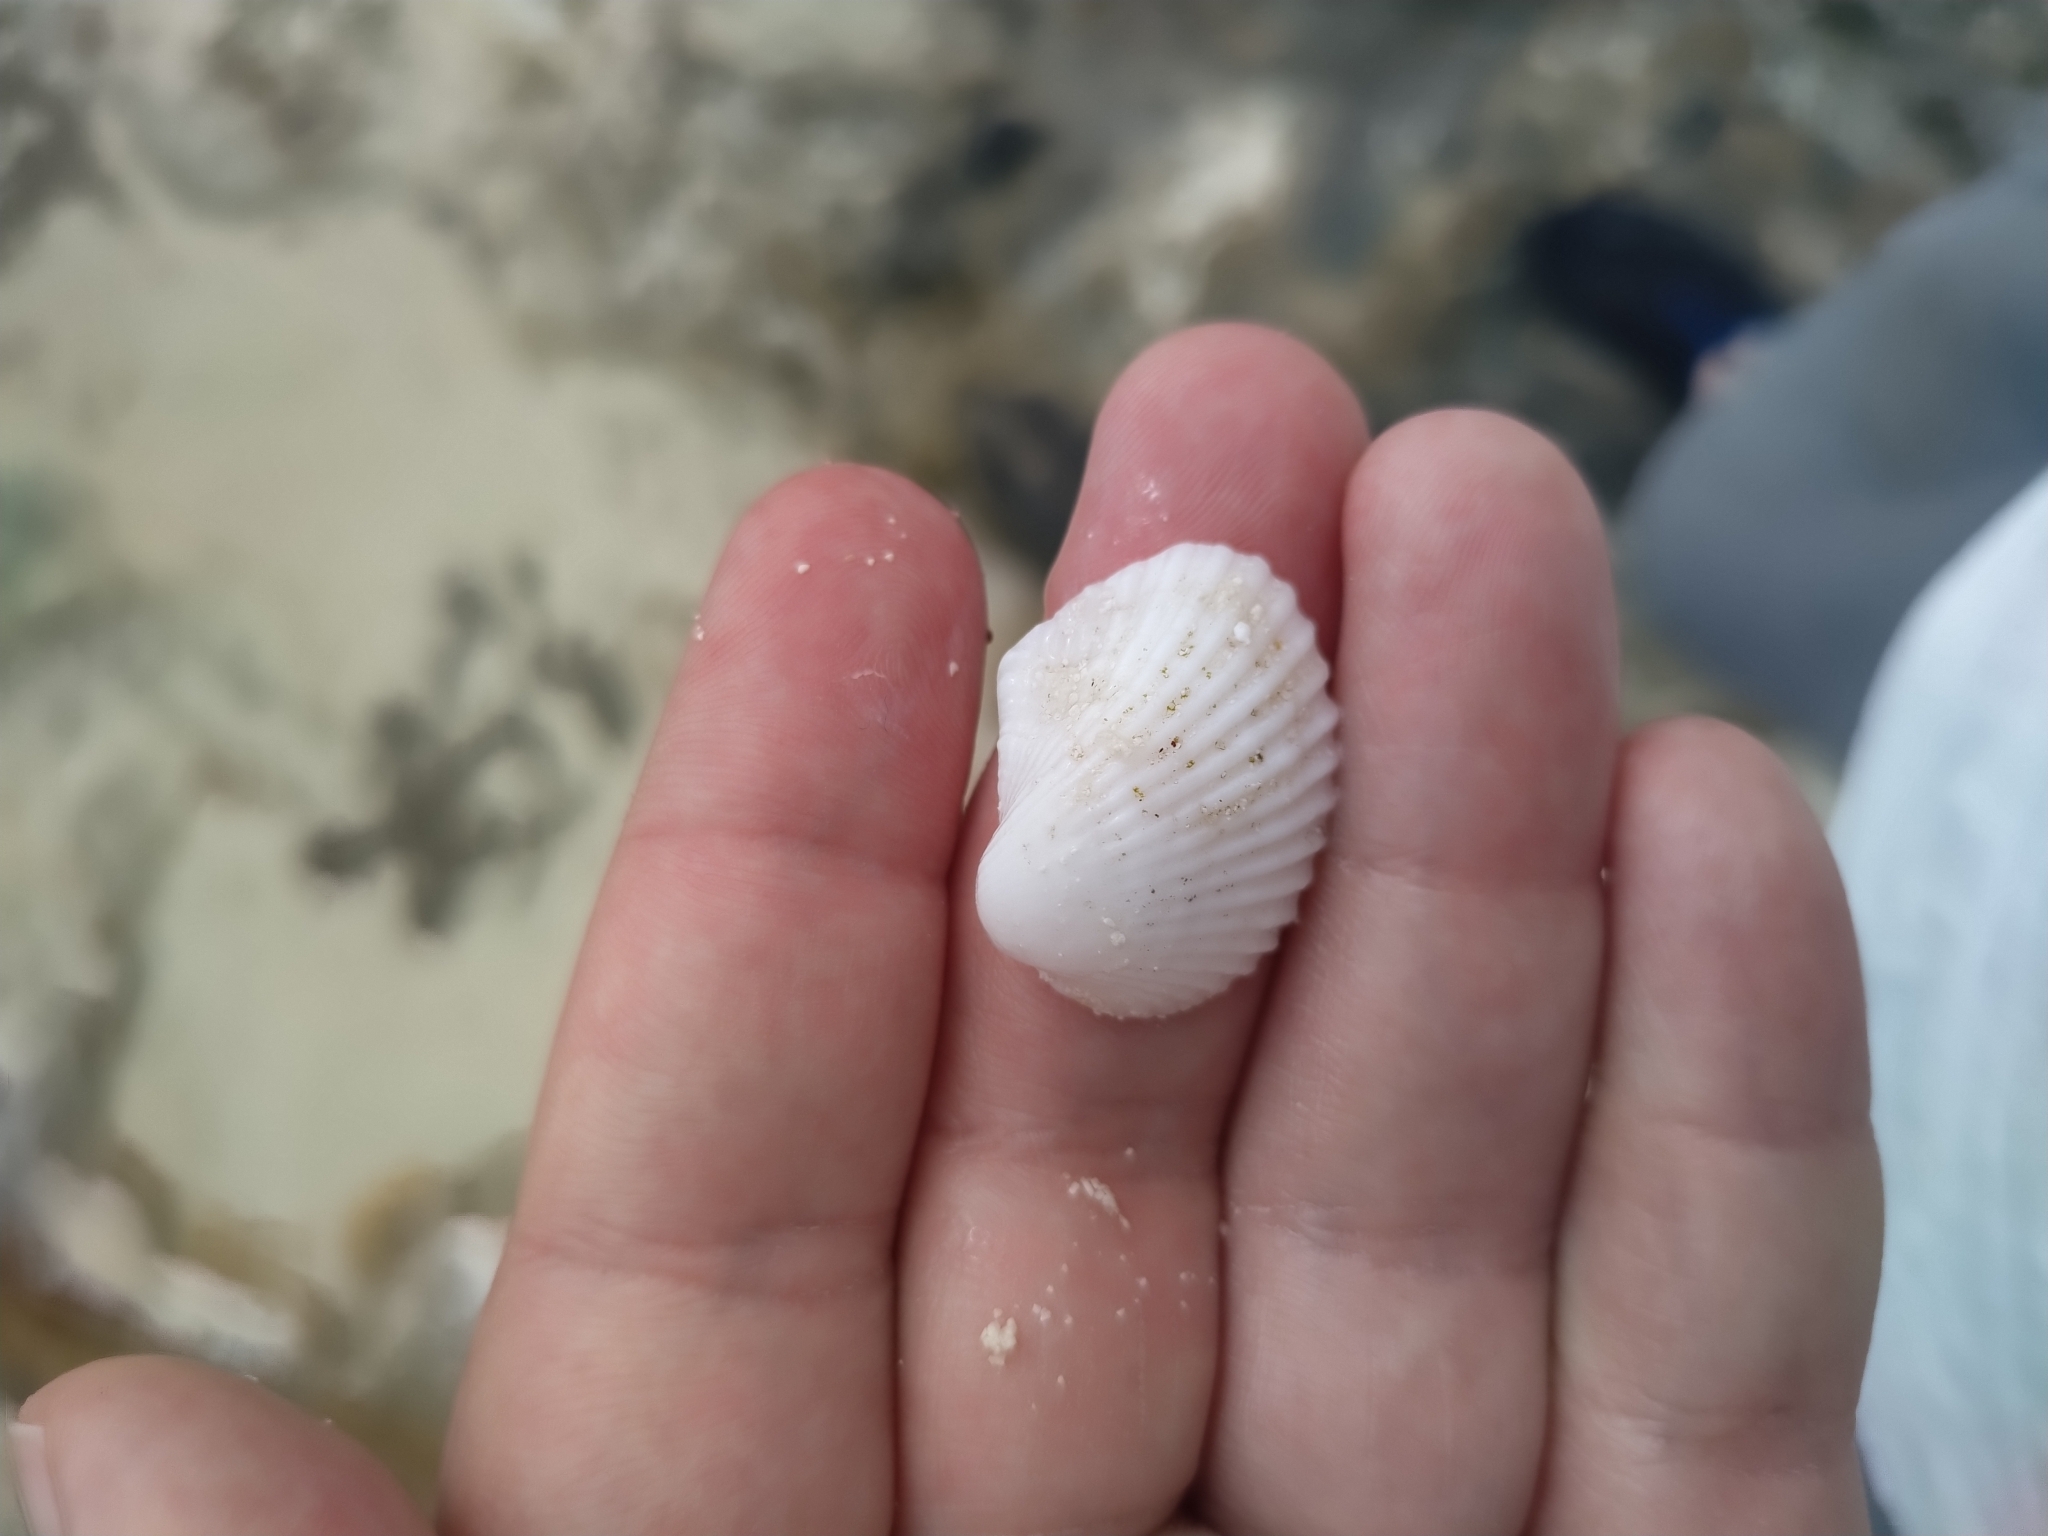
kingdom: Animalia
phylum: Mollusca
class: Bivalvia
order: Arcida
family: Arcidae
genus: Anadara
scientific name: Anadara notabilis
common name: Eared ark
